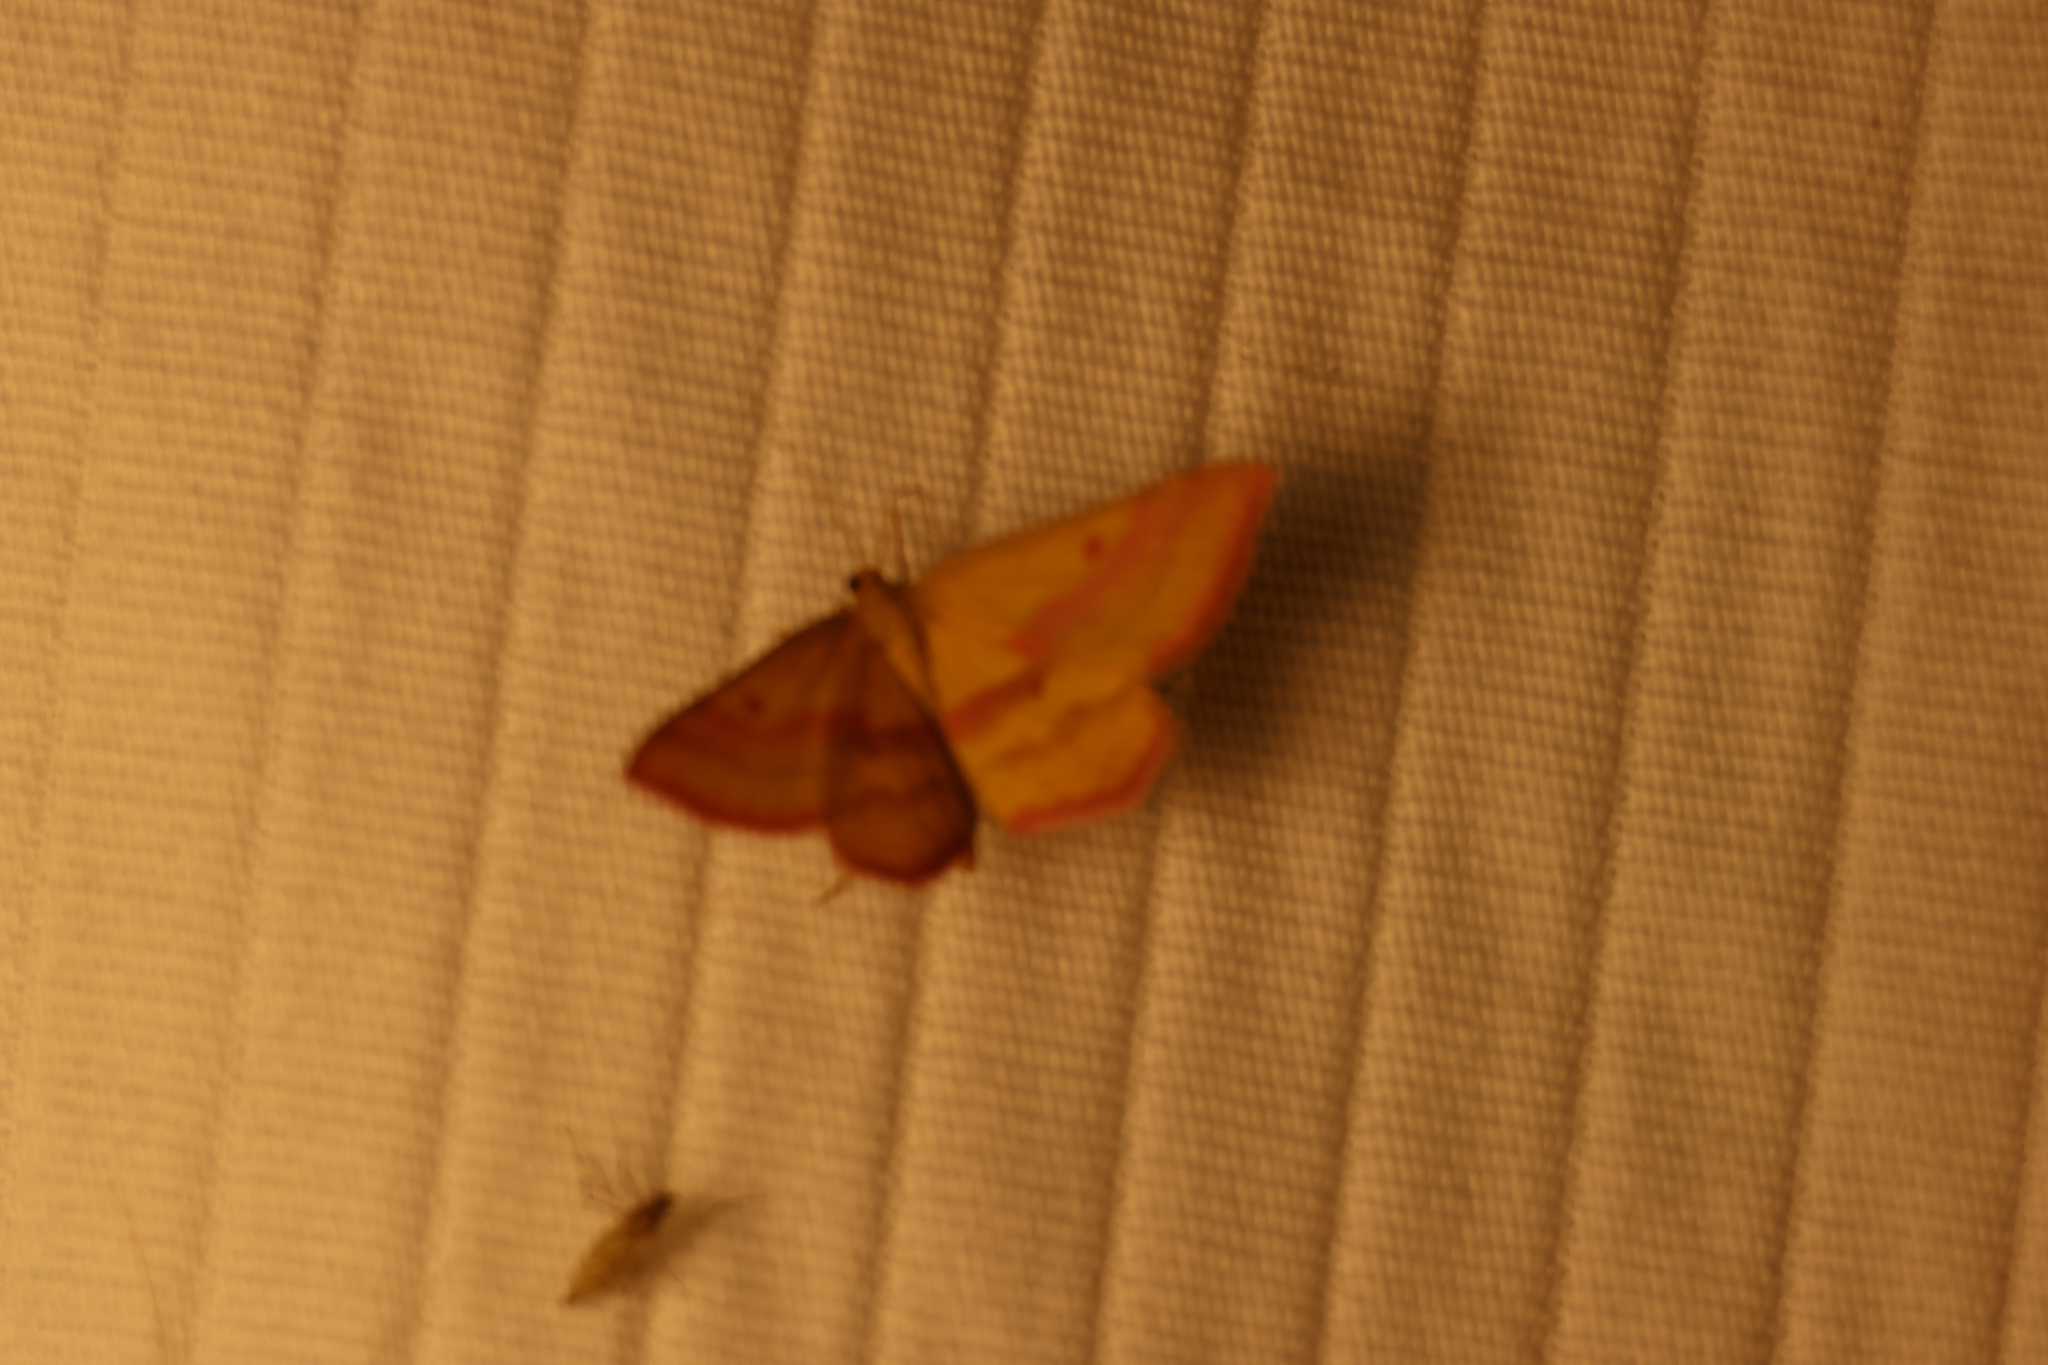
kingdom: Animalia
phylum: Arthropoda
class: Insecta
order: Lepidoptera
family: Geometridae
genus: Haematopis
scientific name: Haematopis grataria
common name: Chickweed geometer
